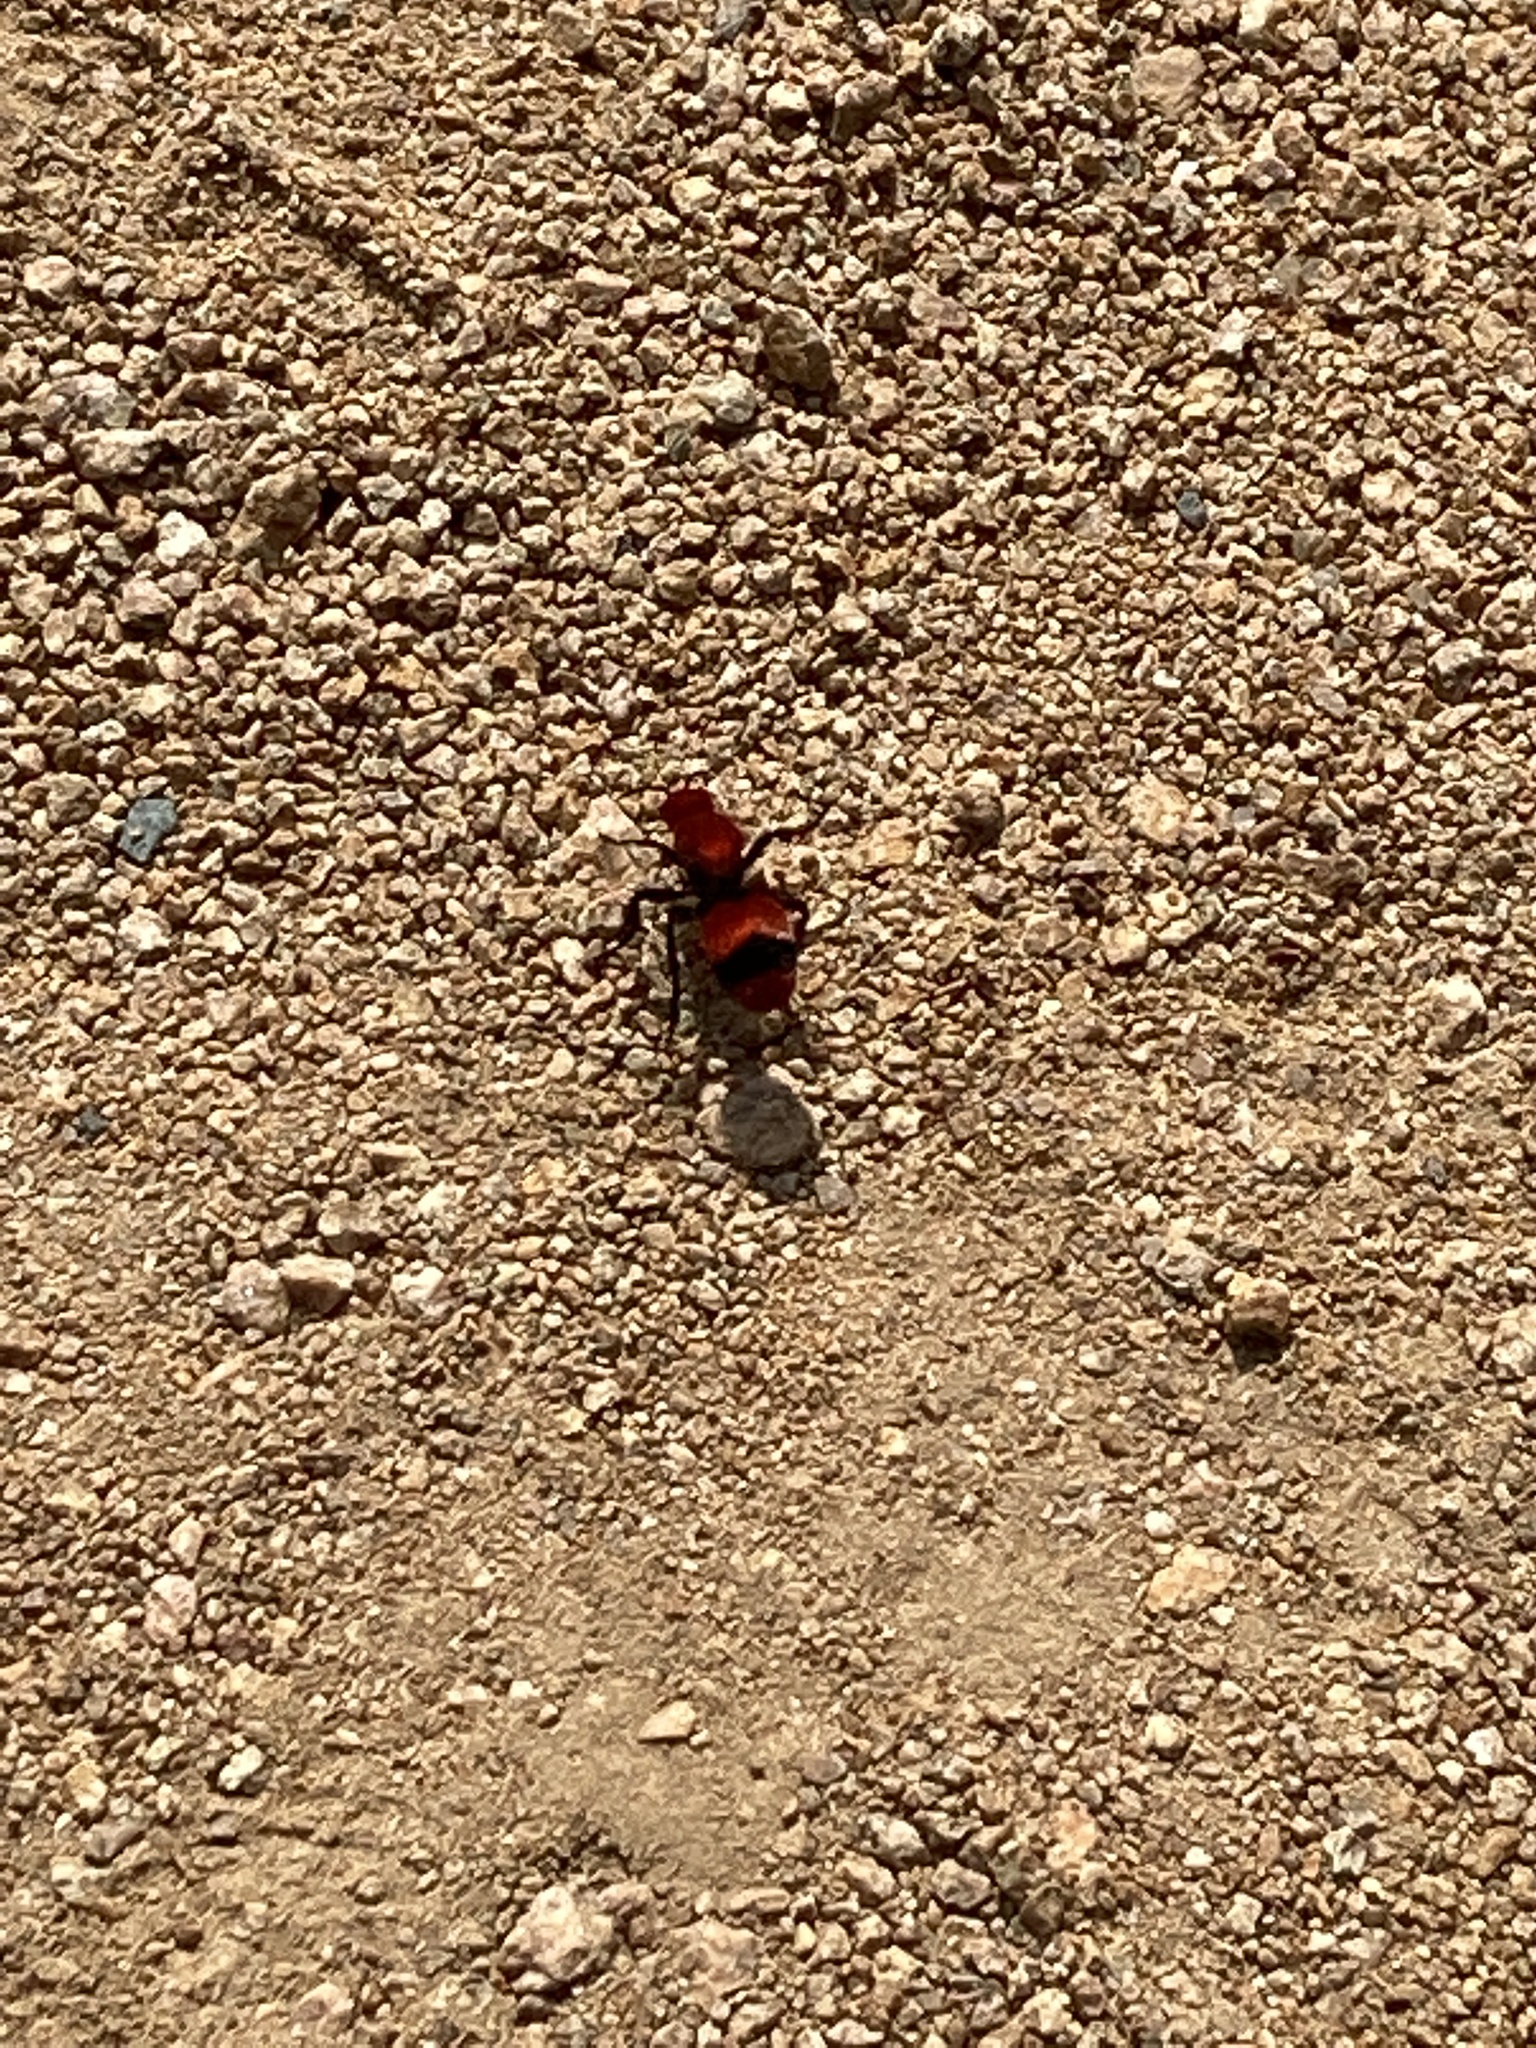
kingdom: Animalia
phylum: Arthropoda
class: Insecta
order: Hymenoptera
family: Mutillidae
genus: Dasymutilla
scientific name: Dasymutilla occidentalis
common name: Common eastern velvet ant
